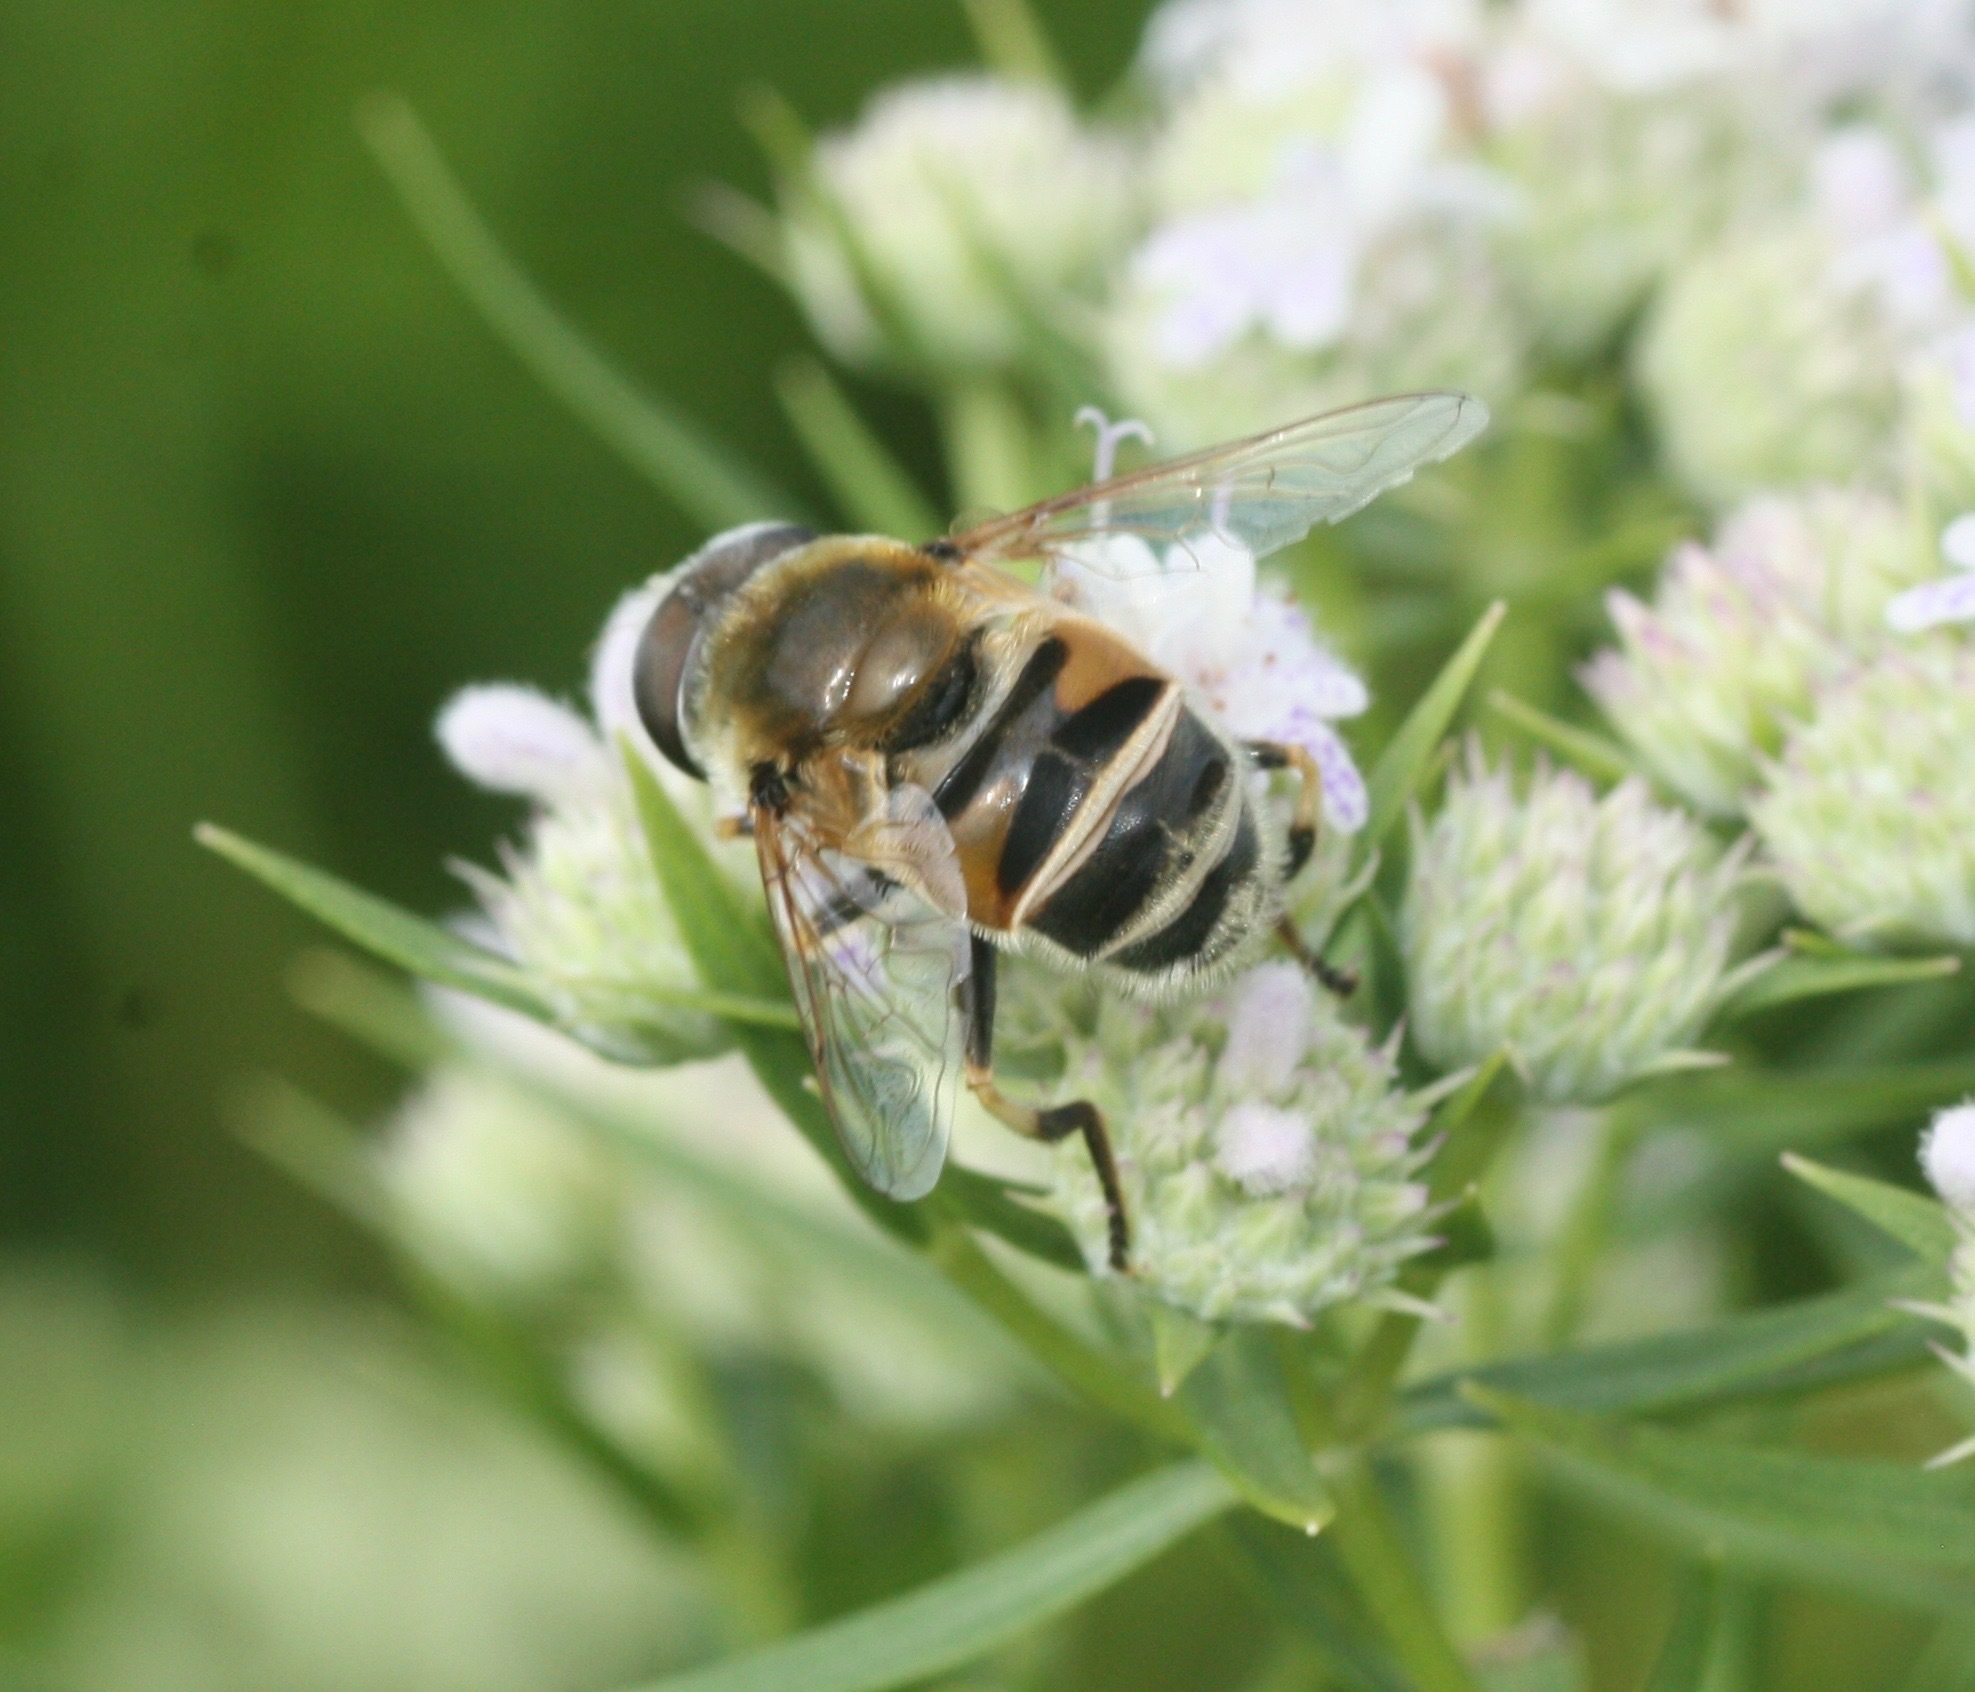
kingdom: Animalia
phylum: Arthropoda
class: Insecta
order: Diptera
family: Syrphidae
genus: Eristalis
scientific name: Eristalis stipator
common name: Yellow-shouldered drone fly
